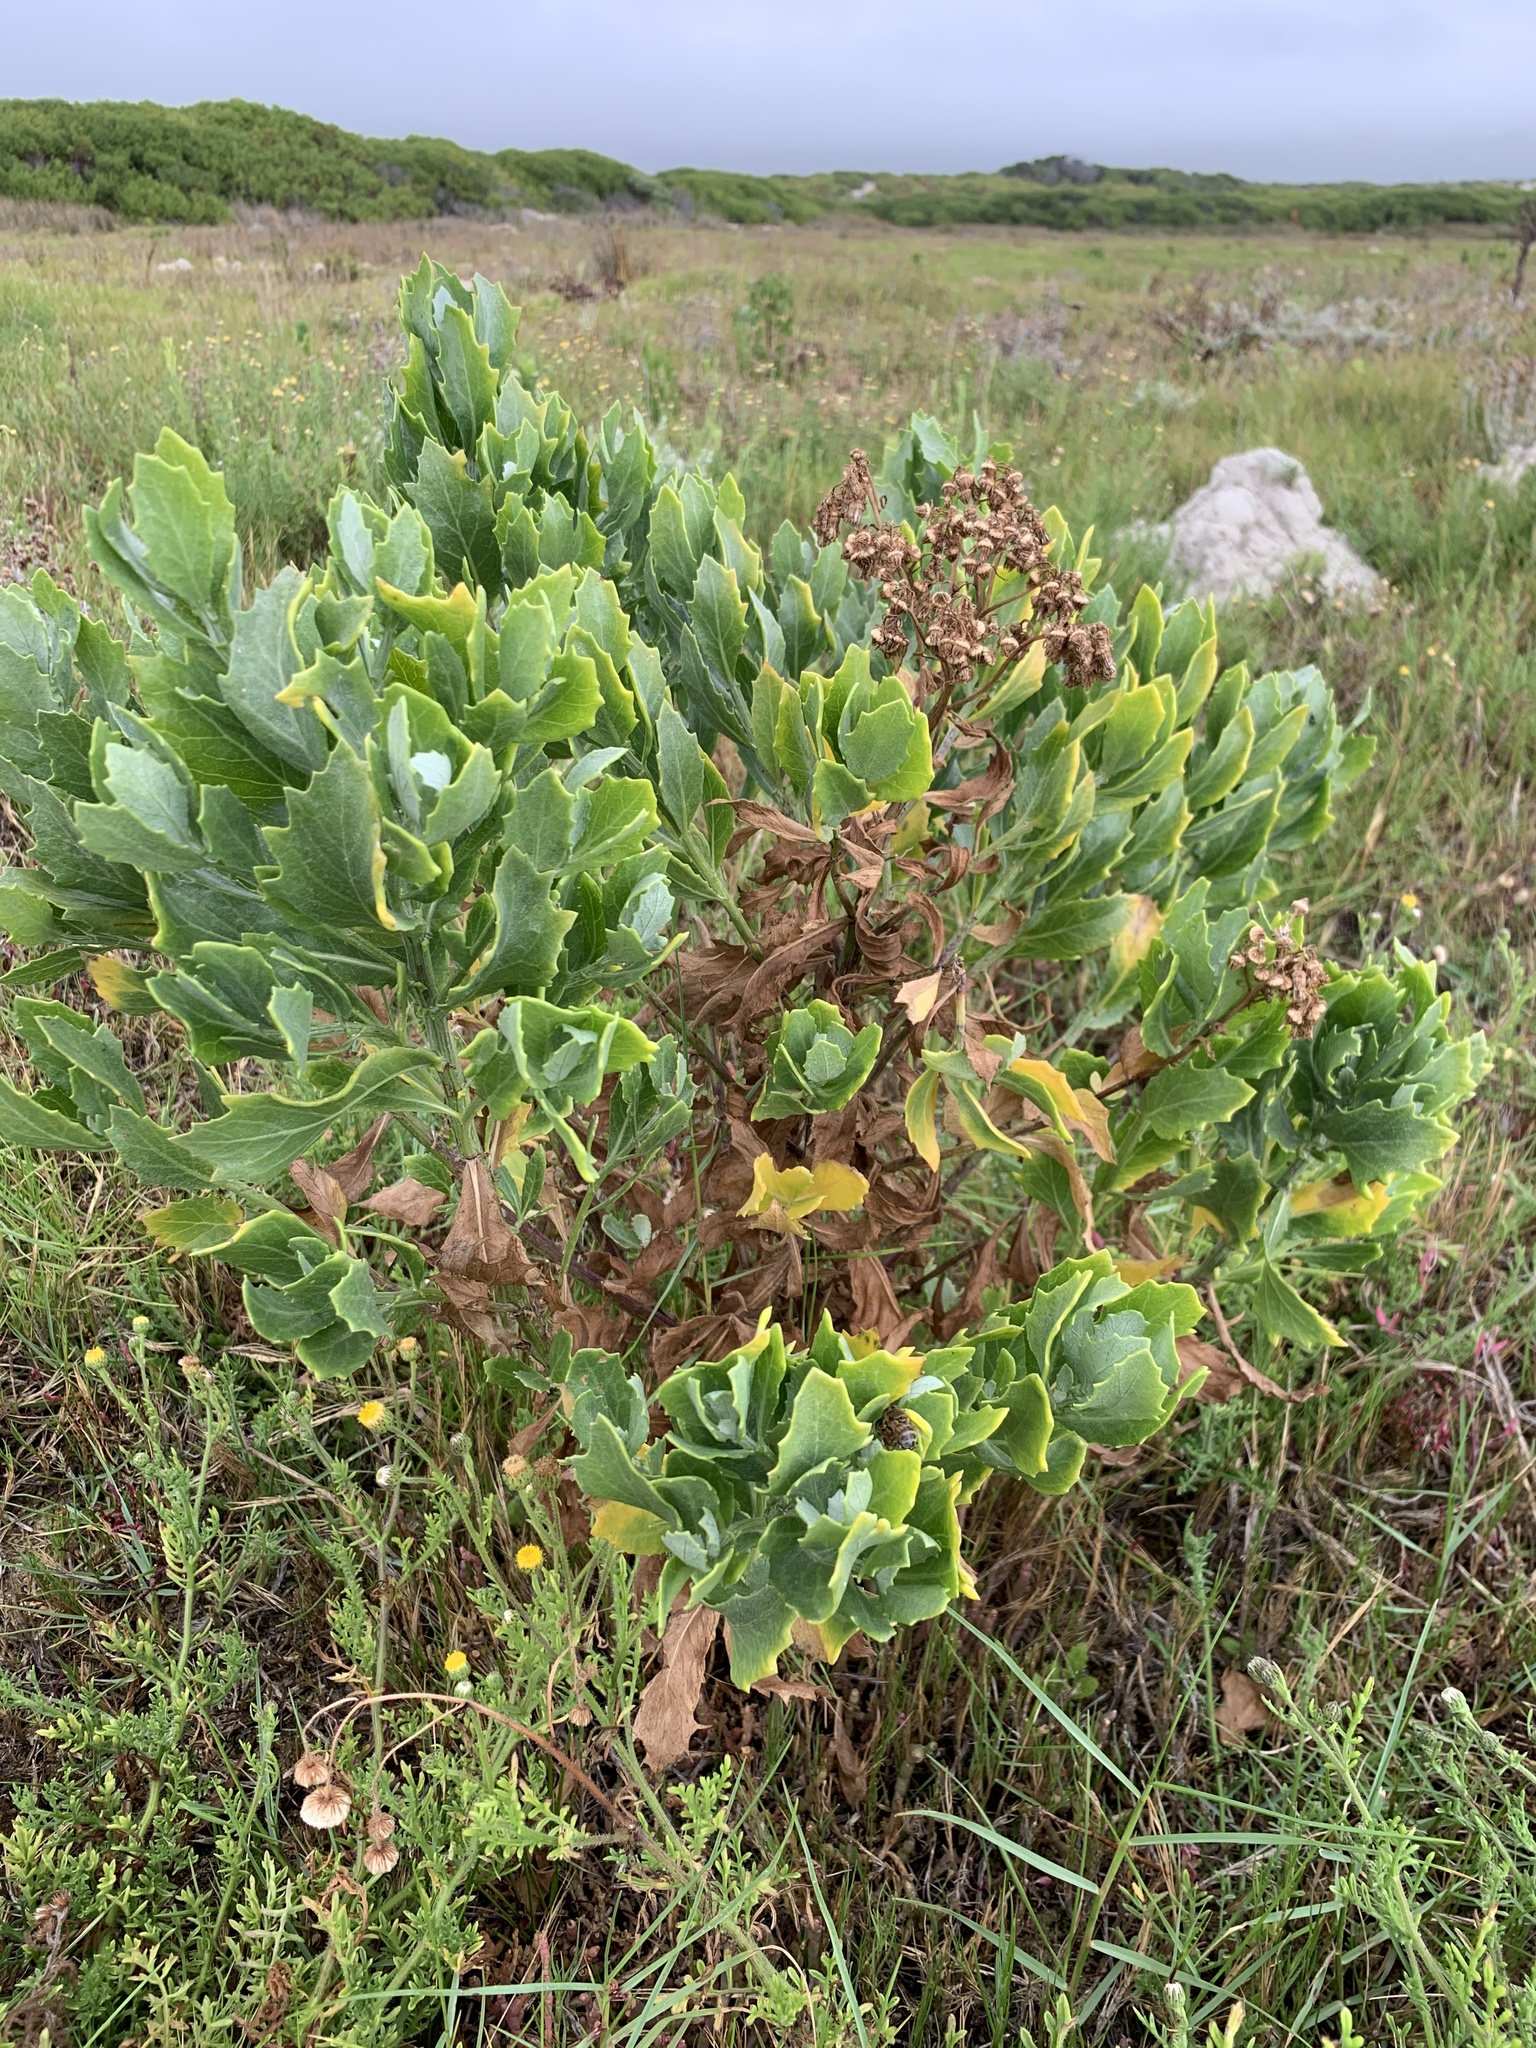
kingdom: Plantae
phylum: Tracheophyta
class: Magnoliopsida
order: Asterales
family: Asteraceae
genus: Senecio
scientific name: Senecio halimifolius
